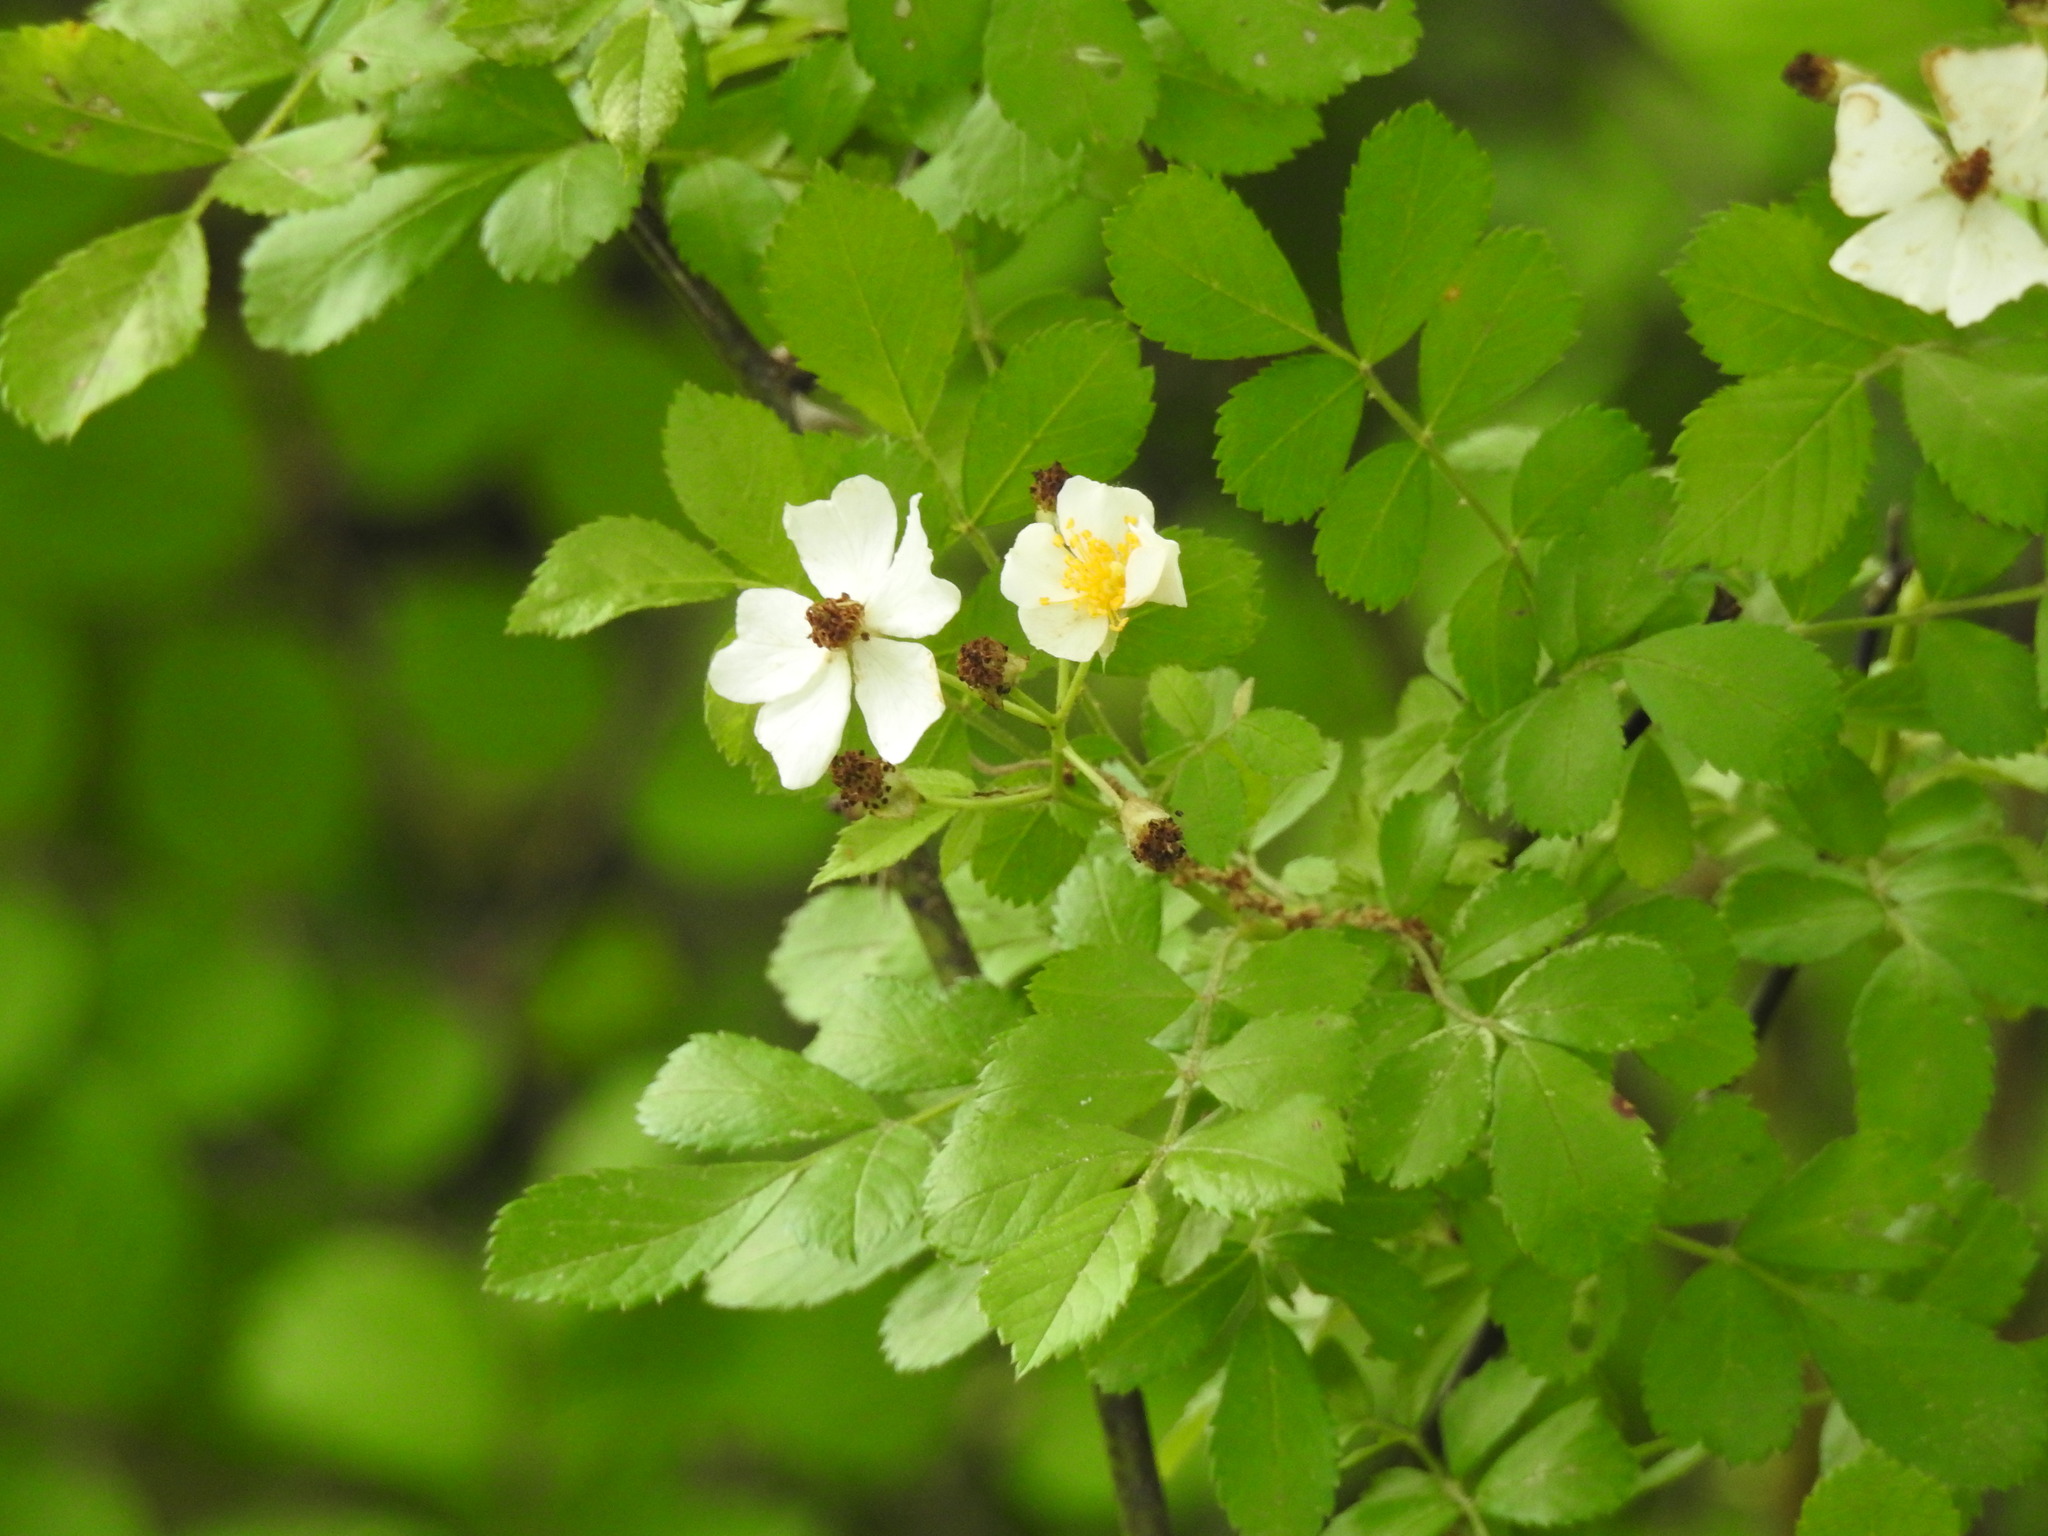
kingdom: Plantae
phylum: Tracheophyta
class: Magnoliopsida
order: Rosales
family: Rosaceae
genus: Rosa
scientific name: Rosa multiflora
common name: Multiflora rose
